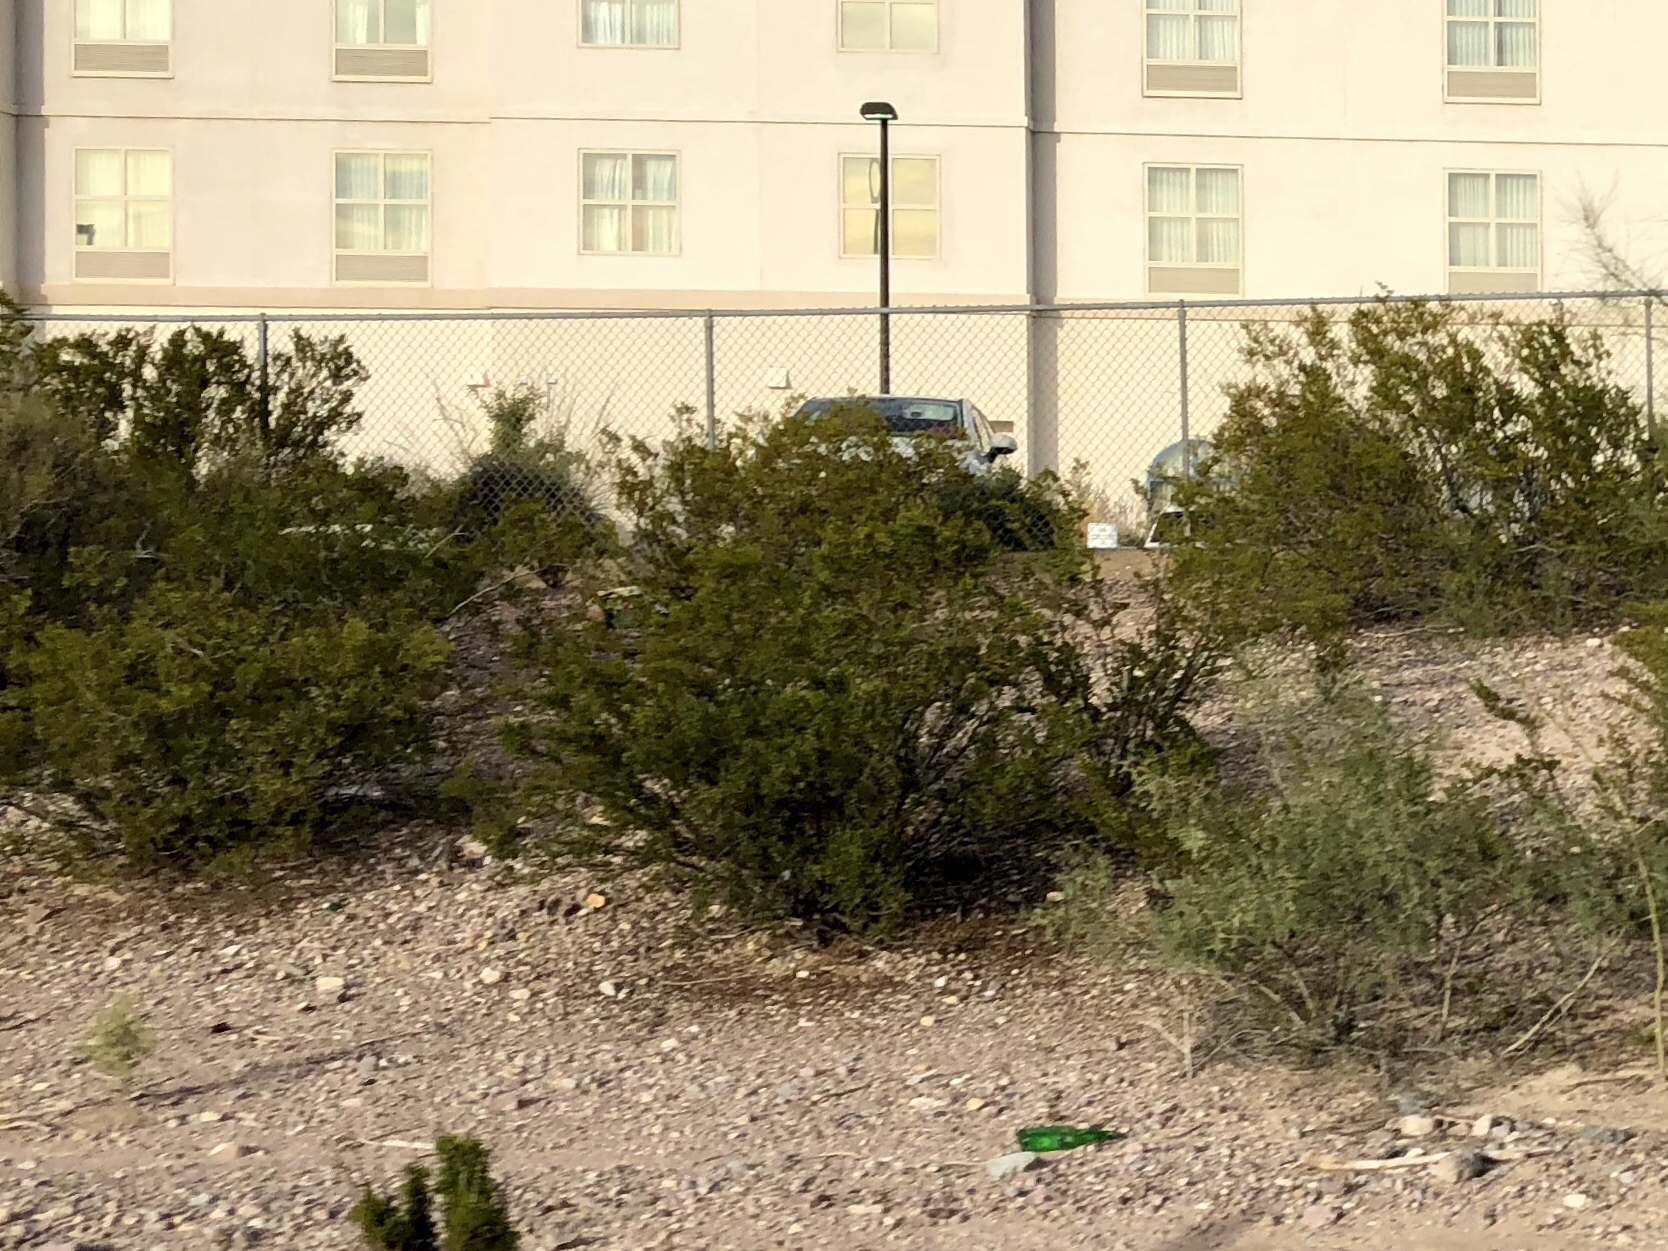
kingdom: Plantae
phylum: Tracheophyta
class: Magnoliopsida
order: Zygophyllales
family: Zygophyllaceae
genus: Larrea
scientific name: Larrea tridentata
